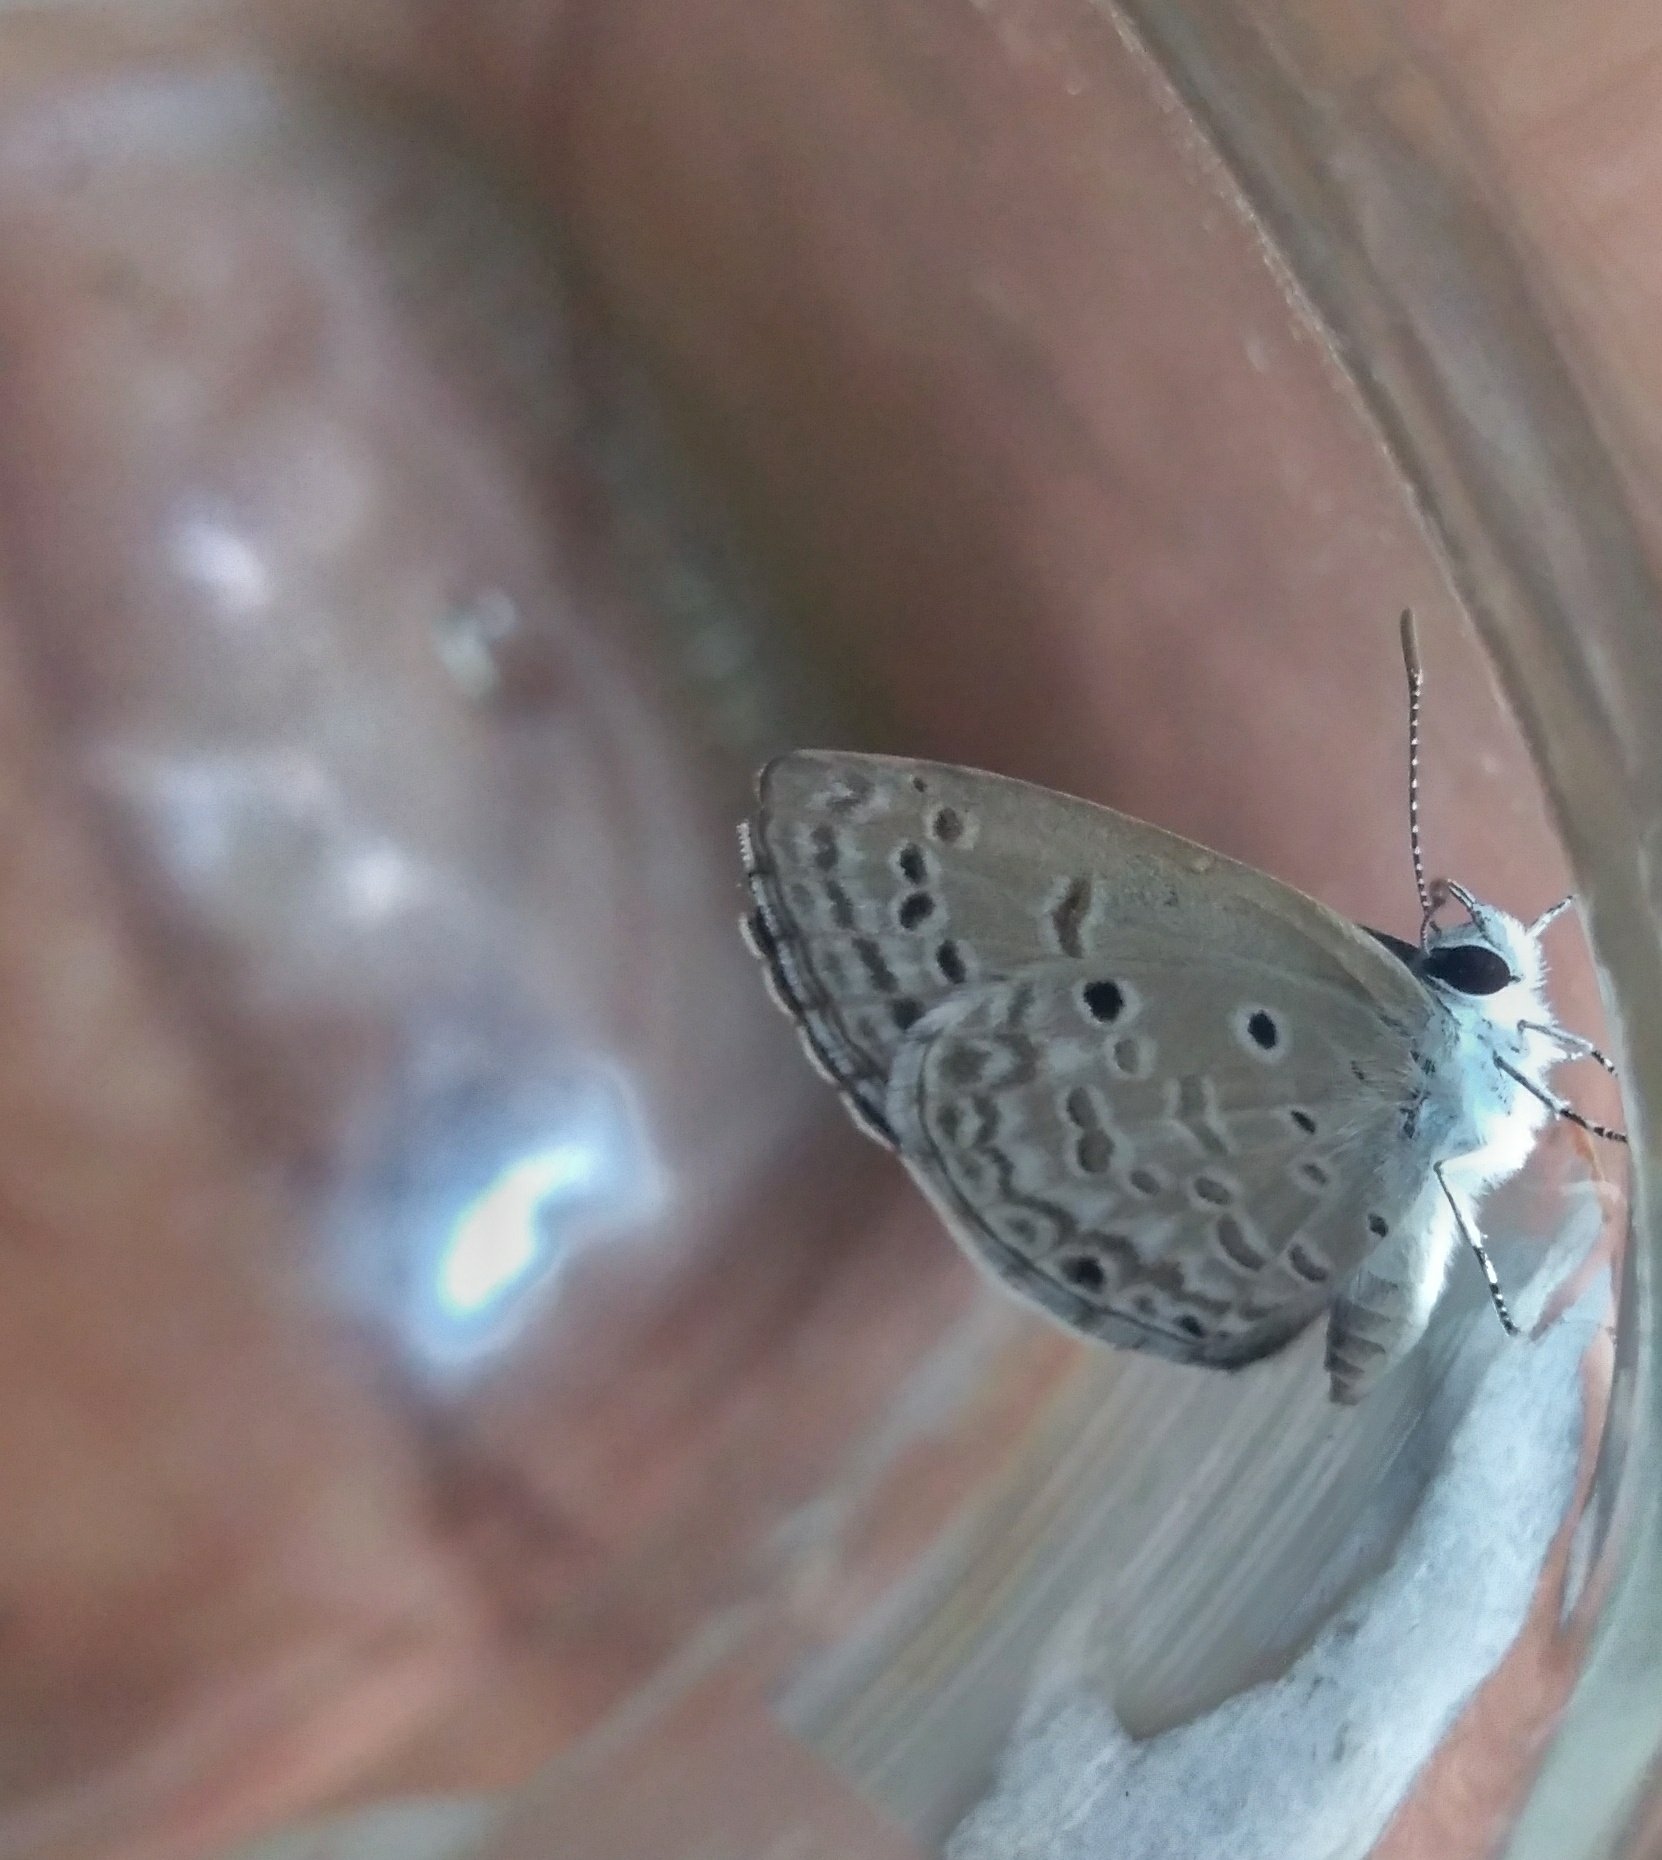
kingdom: Animalia
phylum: Arthropoda
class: Insecta
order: Lepidoptera
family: Lycaenidae
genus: Chilades
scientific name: Chilades laius
